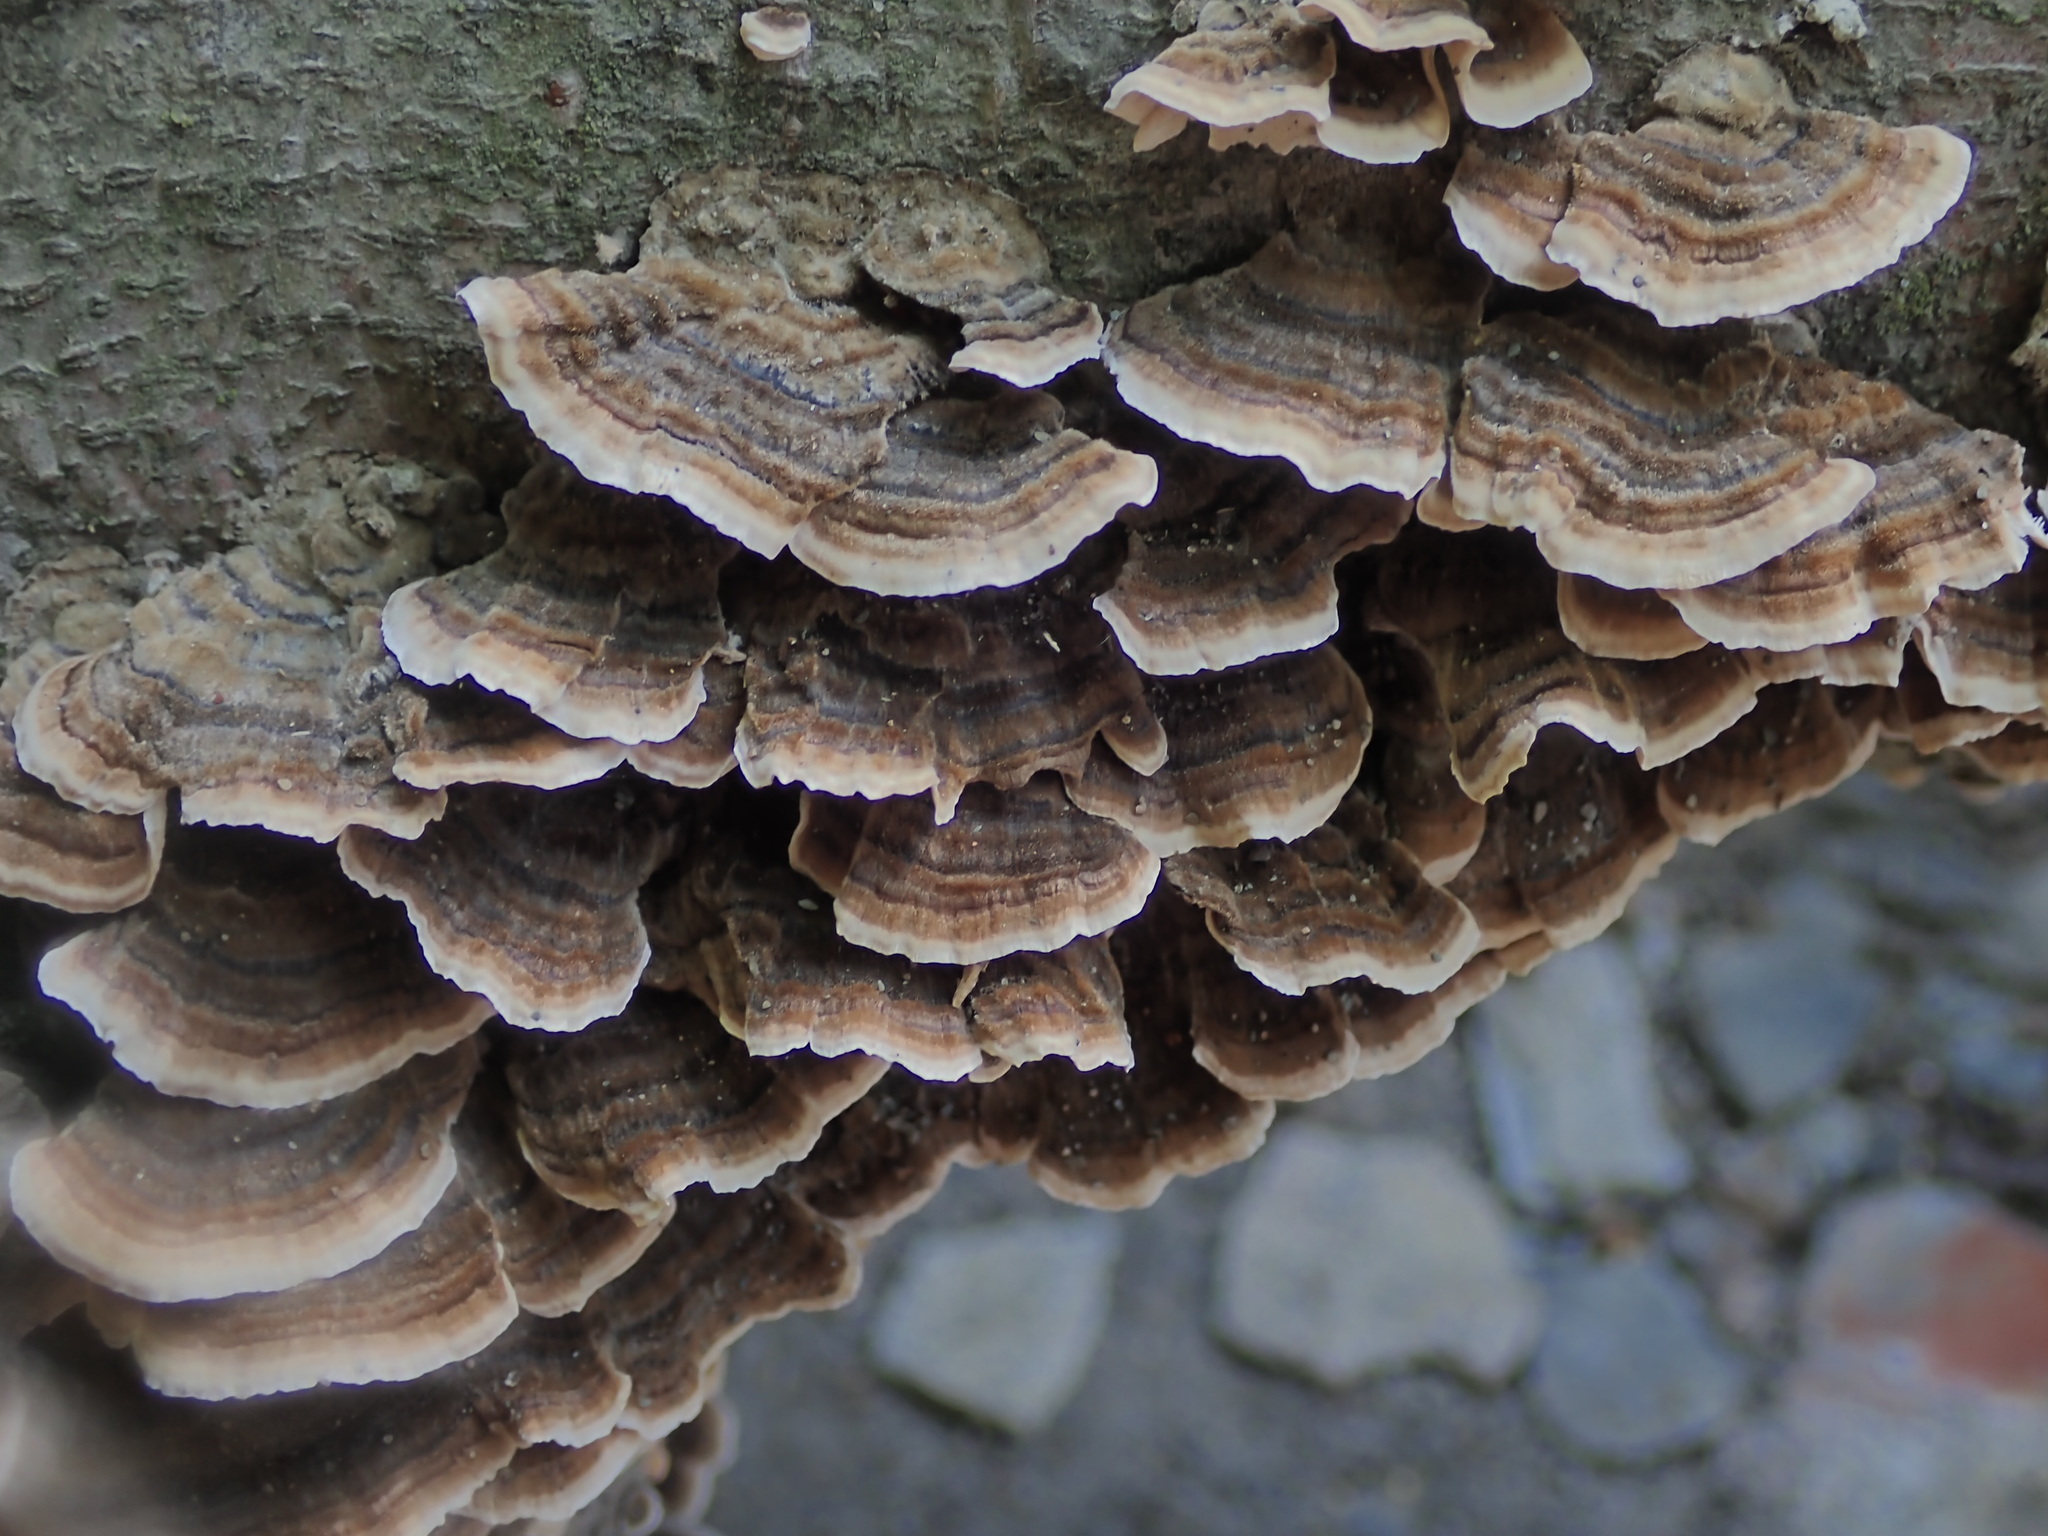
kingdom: Fungi
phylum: Basidiomycota
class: Agaricomycetes
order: Polyporales
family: Polyporaceae
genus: Trametes
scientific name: Trametes versicolor
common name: Turkeytail
